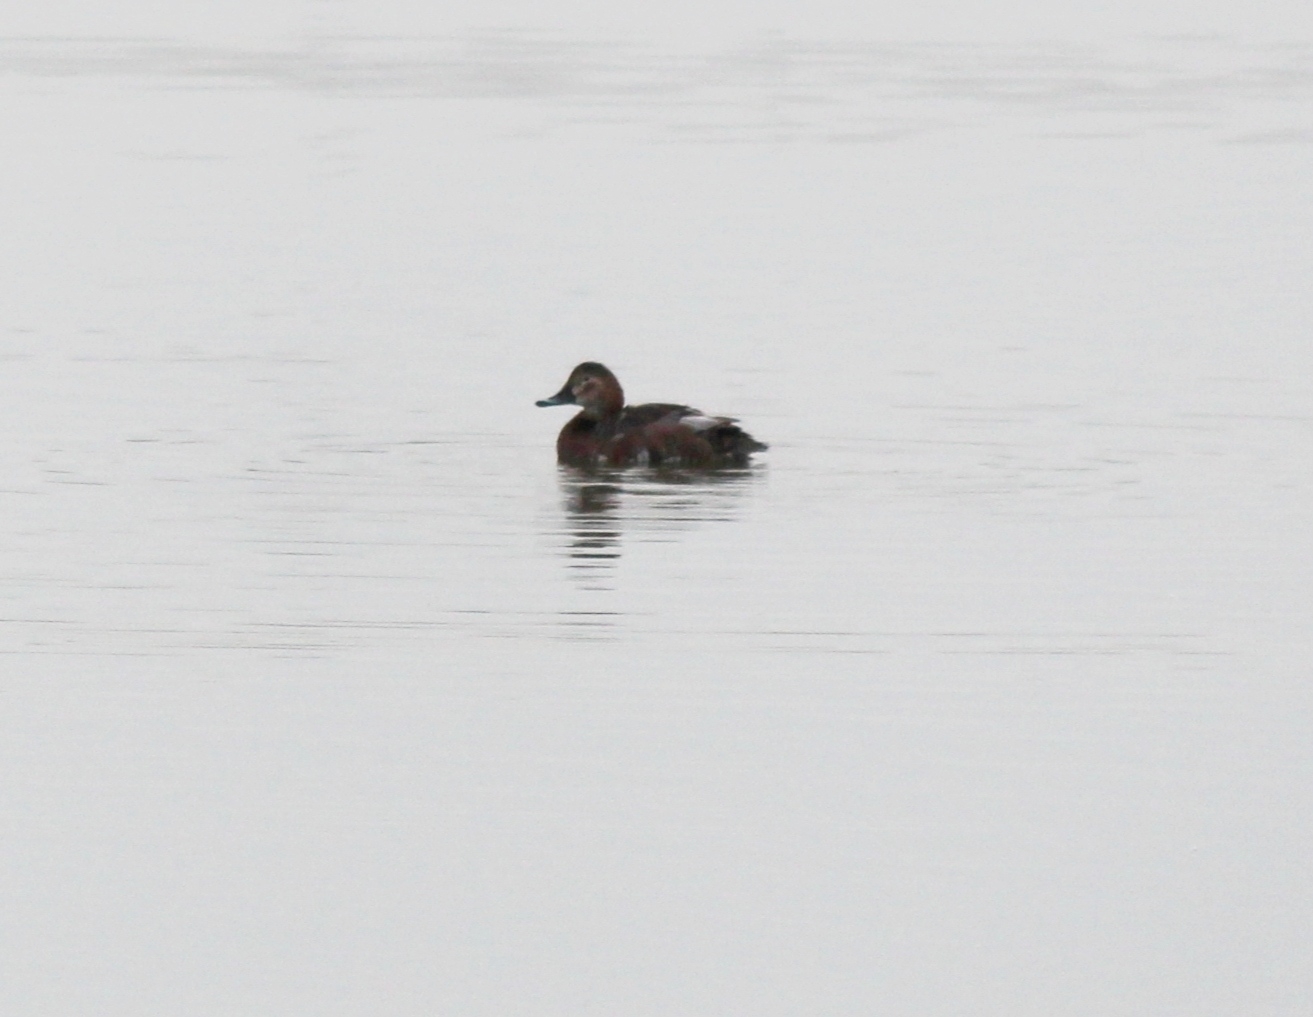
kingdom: Animalia
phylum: Chordata
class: Aves
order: Anseriformes
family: Anatidae
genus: Aythya
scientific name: Aythya ferina
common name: Common pochard
